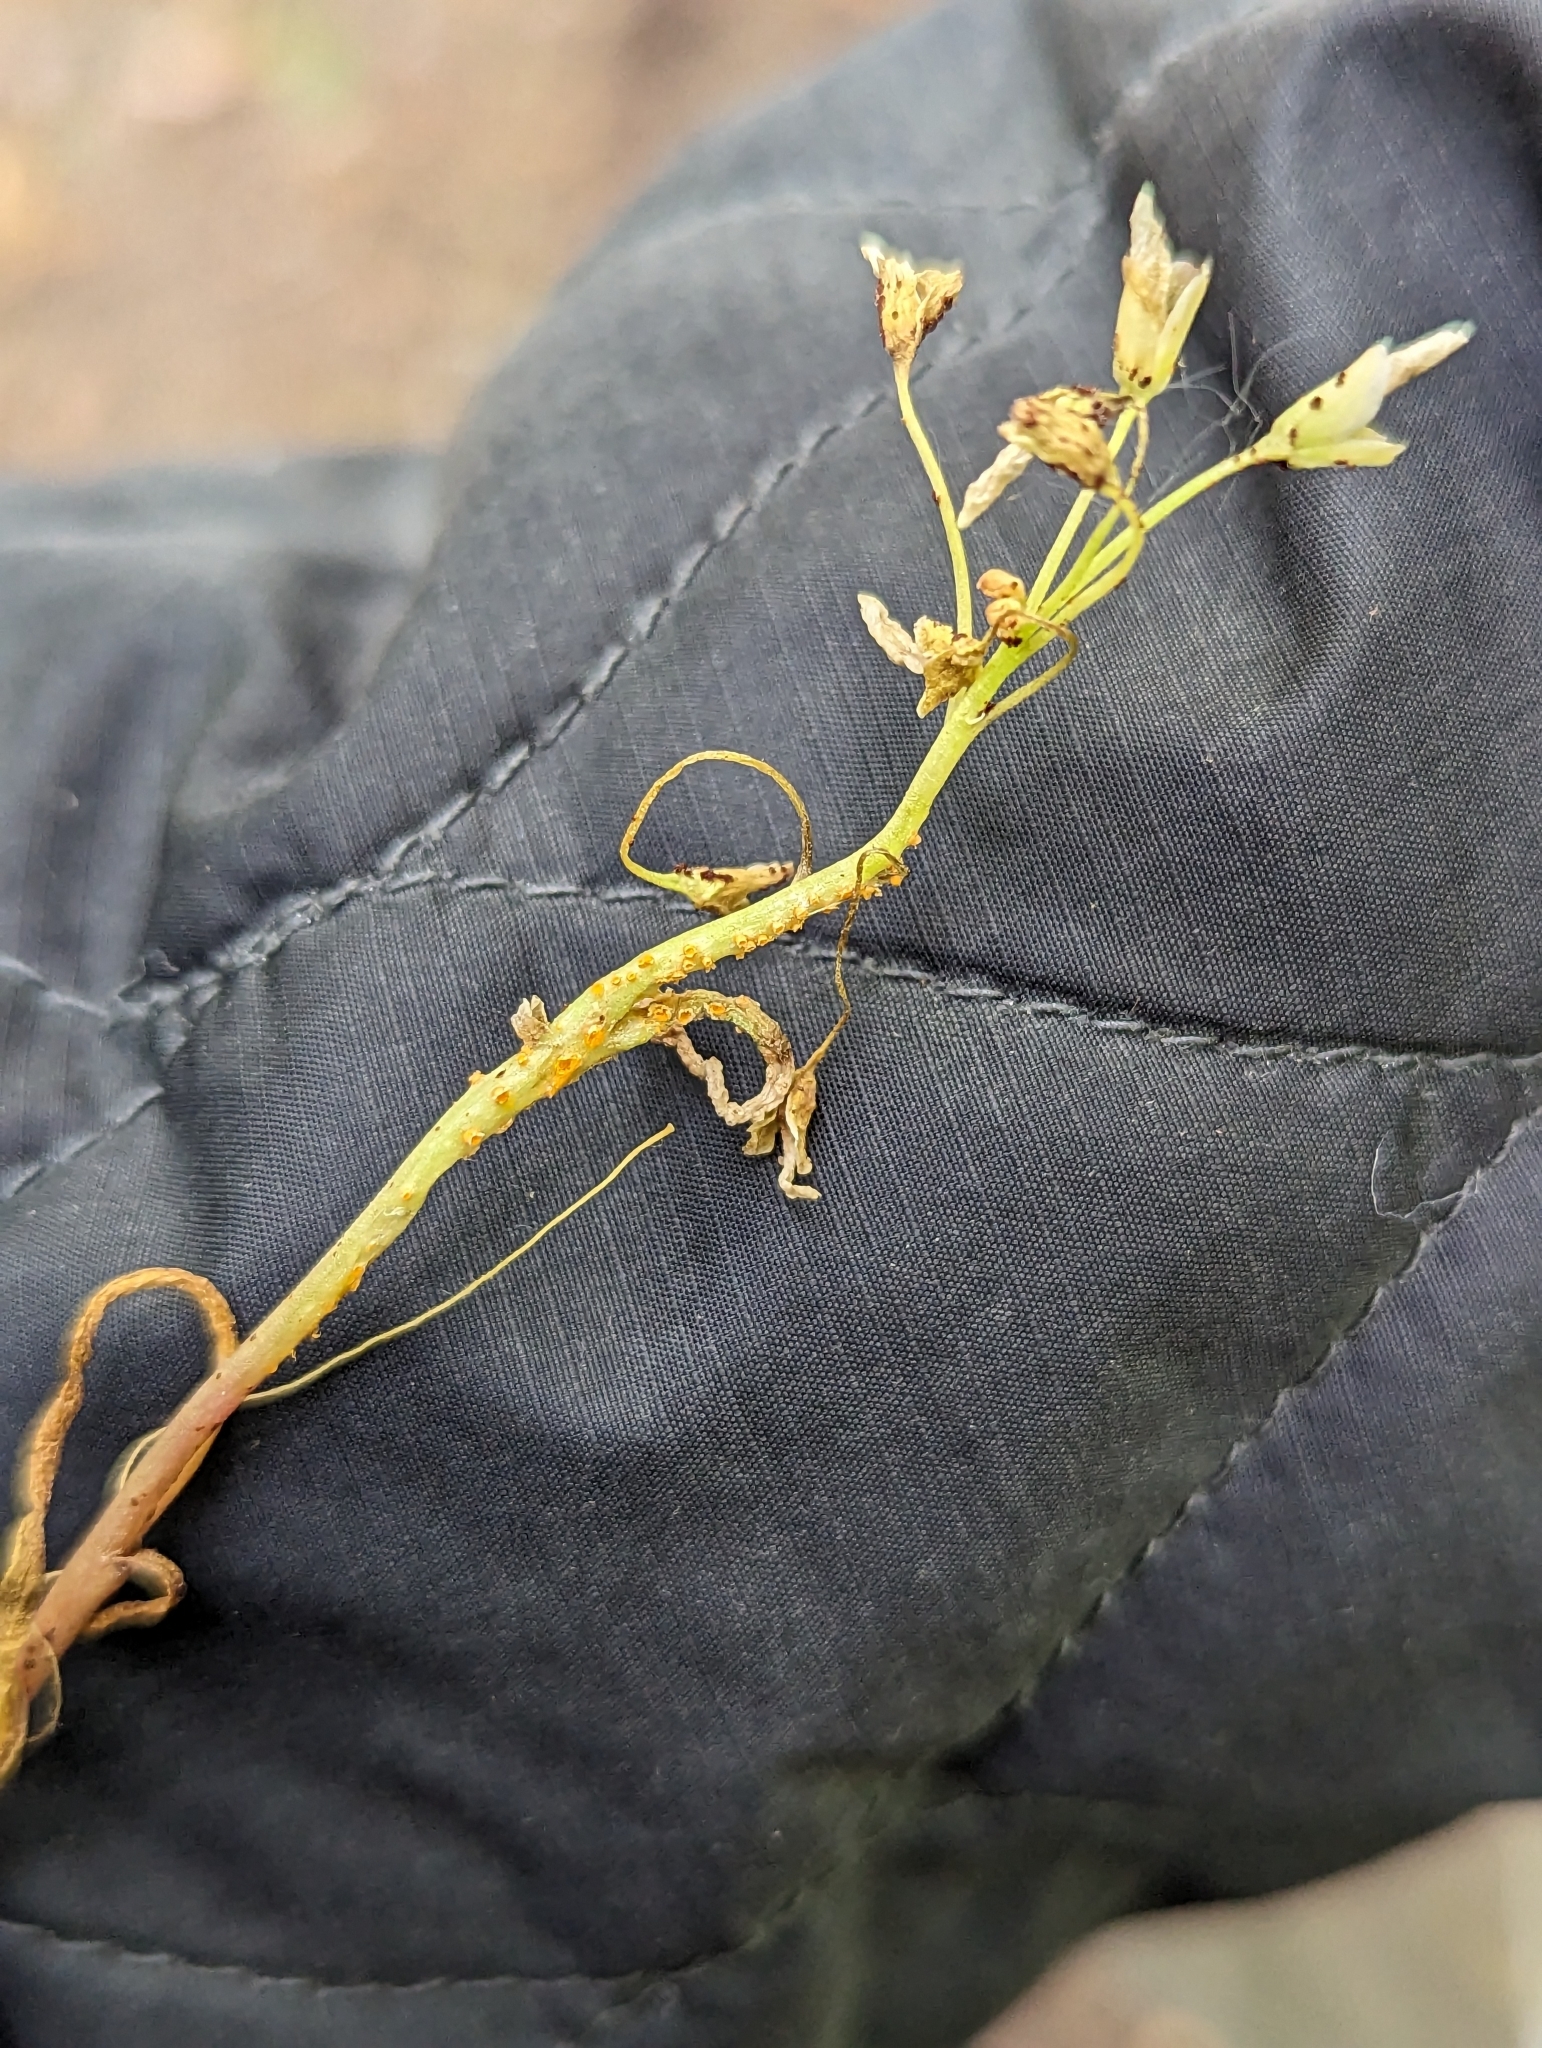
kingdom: Fungi
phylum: Basidiomycota
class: Pucciniomycetes
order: Pucciniales
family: Pucciniaceae
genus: Puccinia
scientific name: Puccinia mariae-wilsoniae
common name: Spring beauty rust
